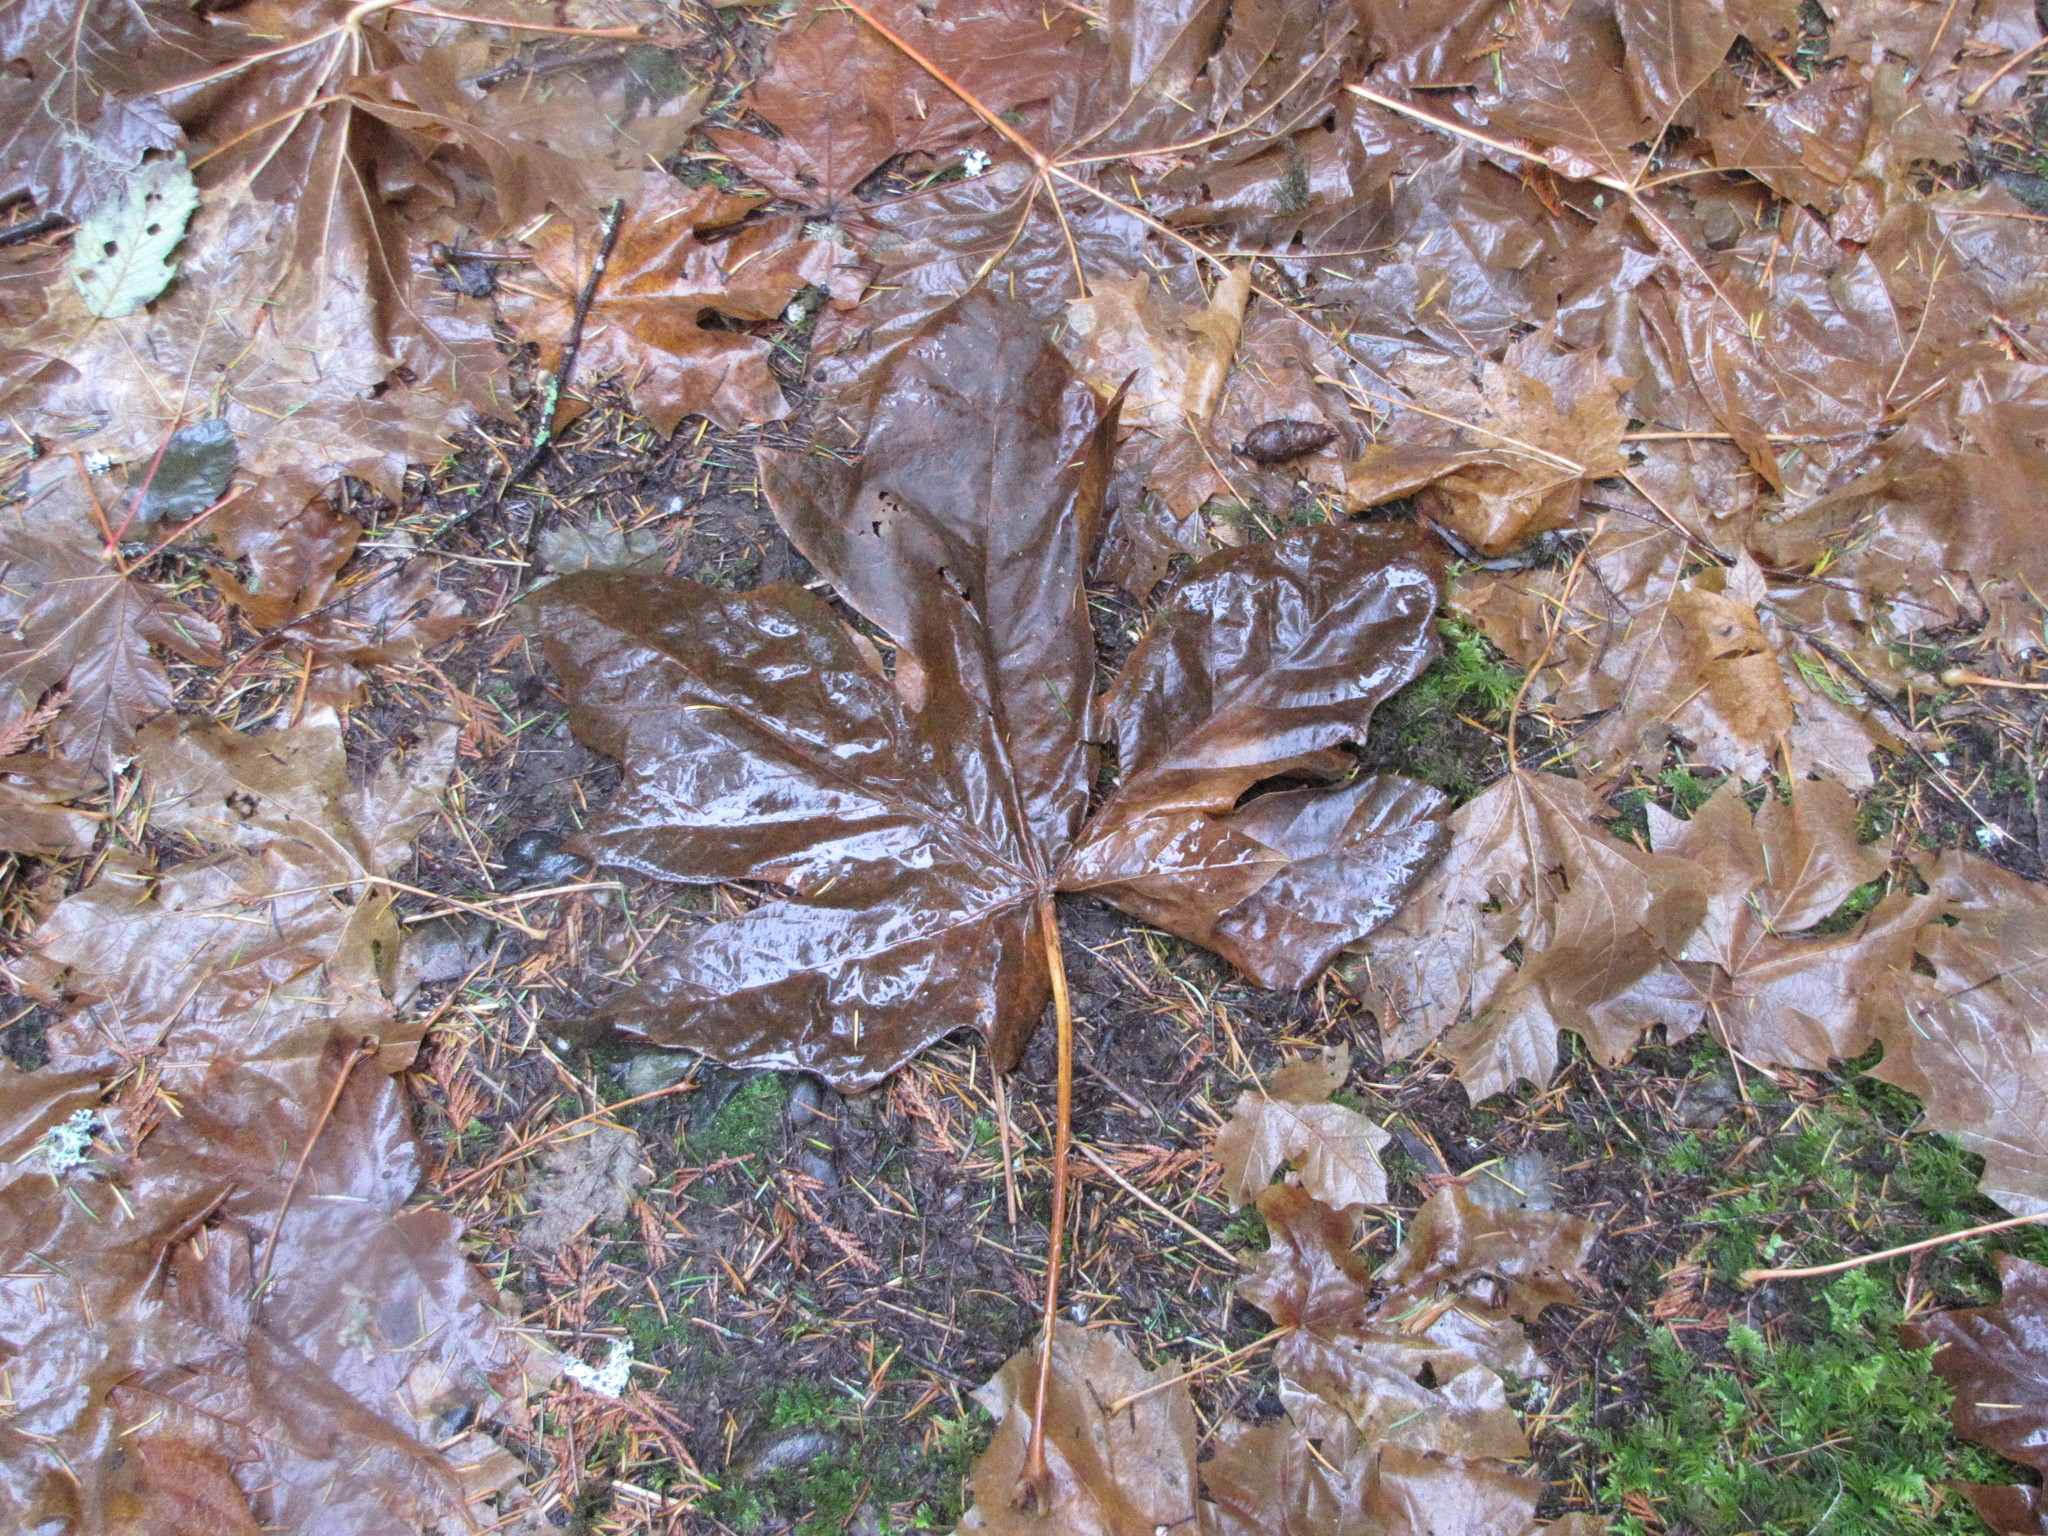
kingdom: Plantae
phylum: Tracheophyta
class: Magnoliopsida
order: Sapindales
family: Sapindaceae
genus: Acer
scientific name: Acer macrophyllum
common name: Oregon maple
